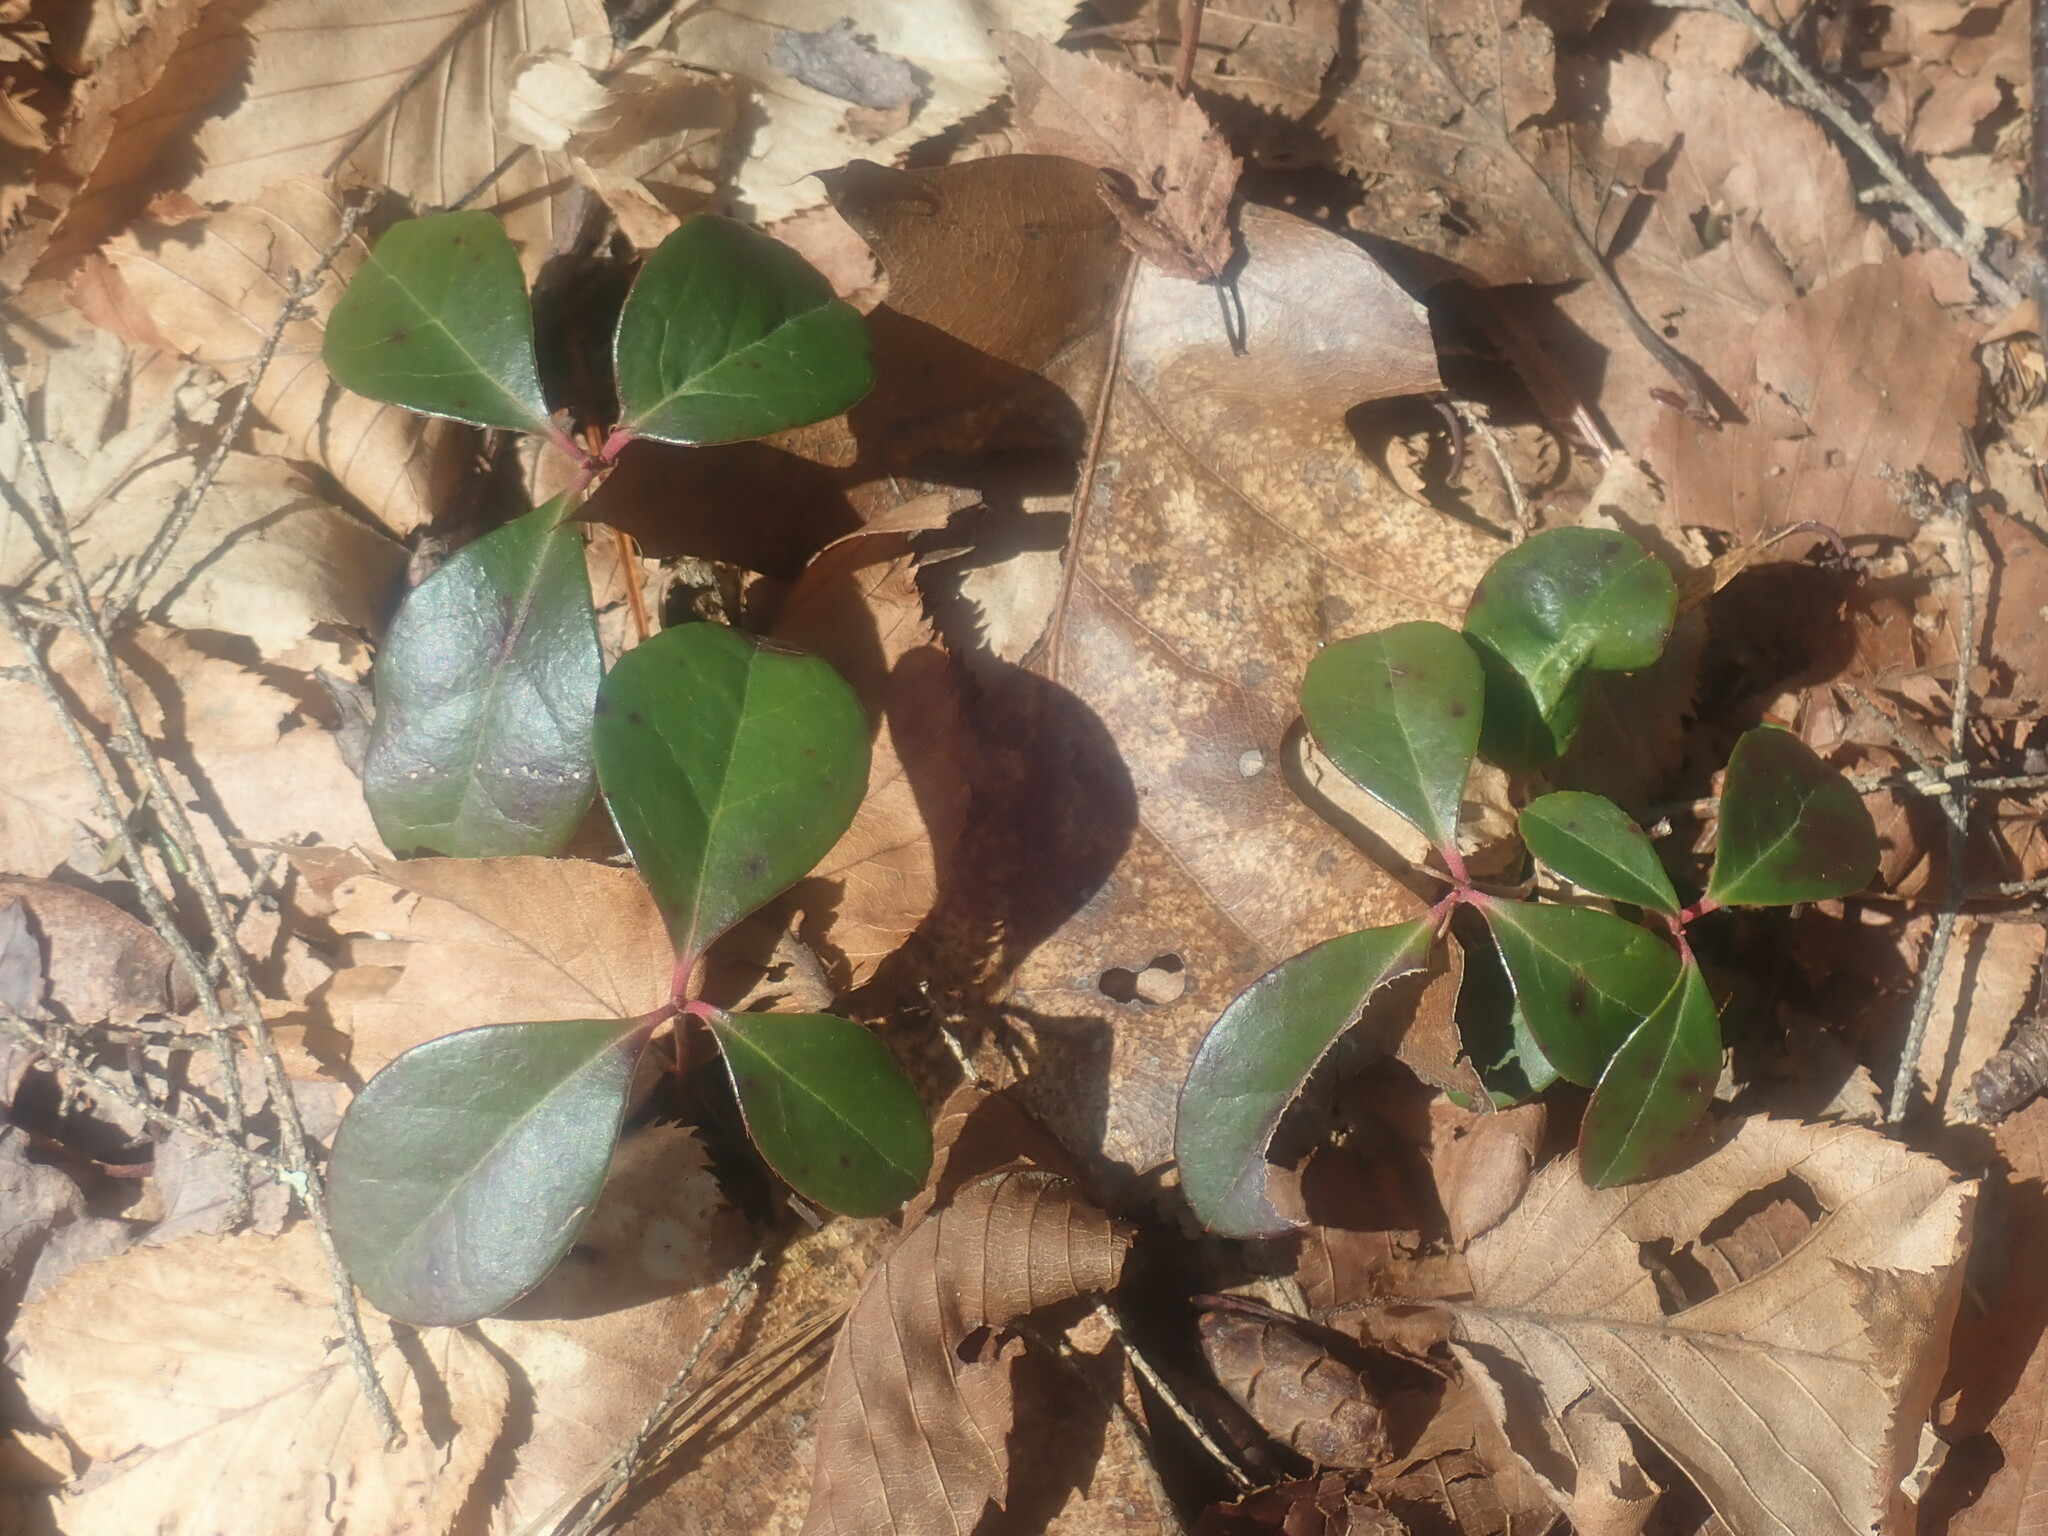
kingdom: Plantae
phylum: Tracheophyta
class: Magnoliopsida
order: Ericales
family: Ericaceae
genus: Gaultheria
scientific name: Gaultheria procumbens
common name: Checkerberry
